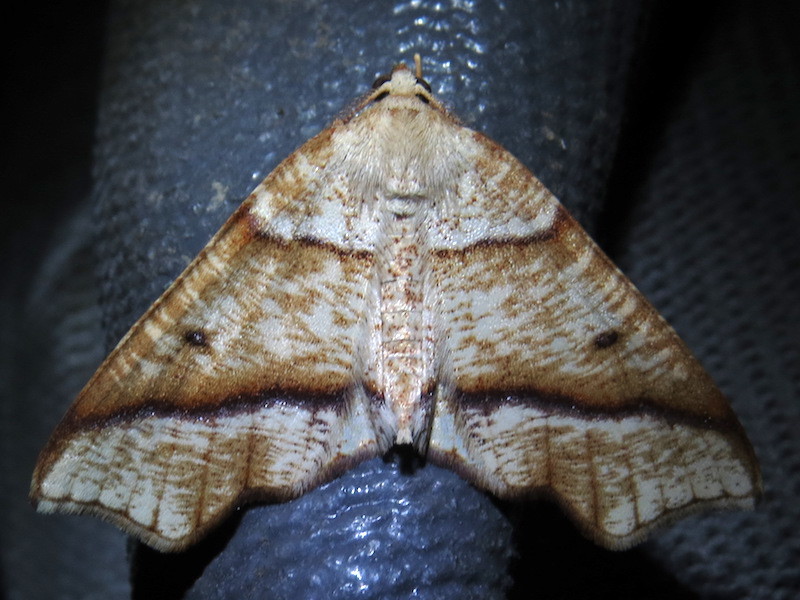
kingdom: Animalia
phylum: Arthropoda
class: Insecta
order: Lepidoptera
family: Geometridae
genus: Plagodis
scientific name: Plagodis alcoolaria
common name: Hollow-spotted plagodis
